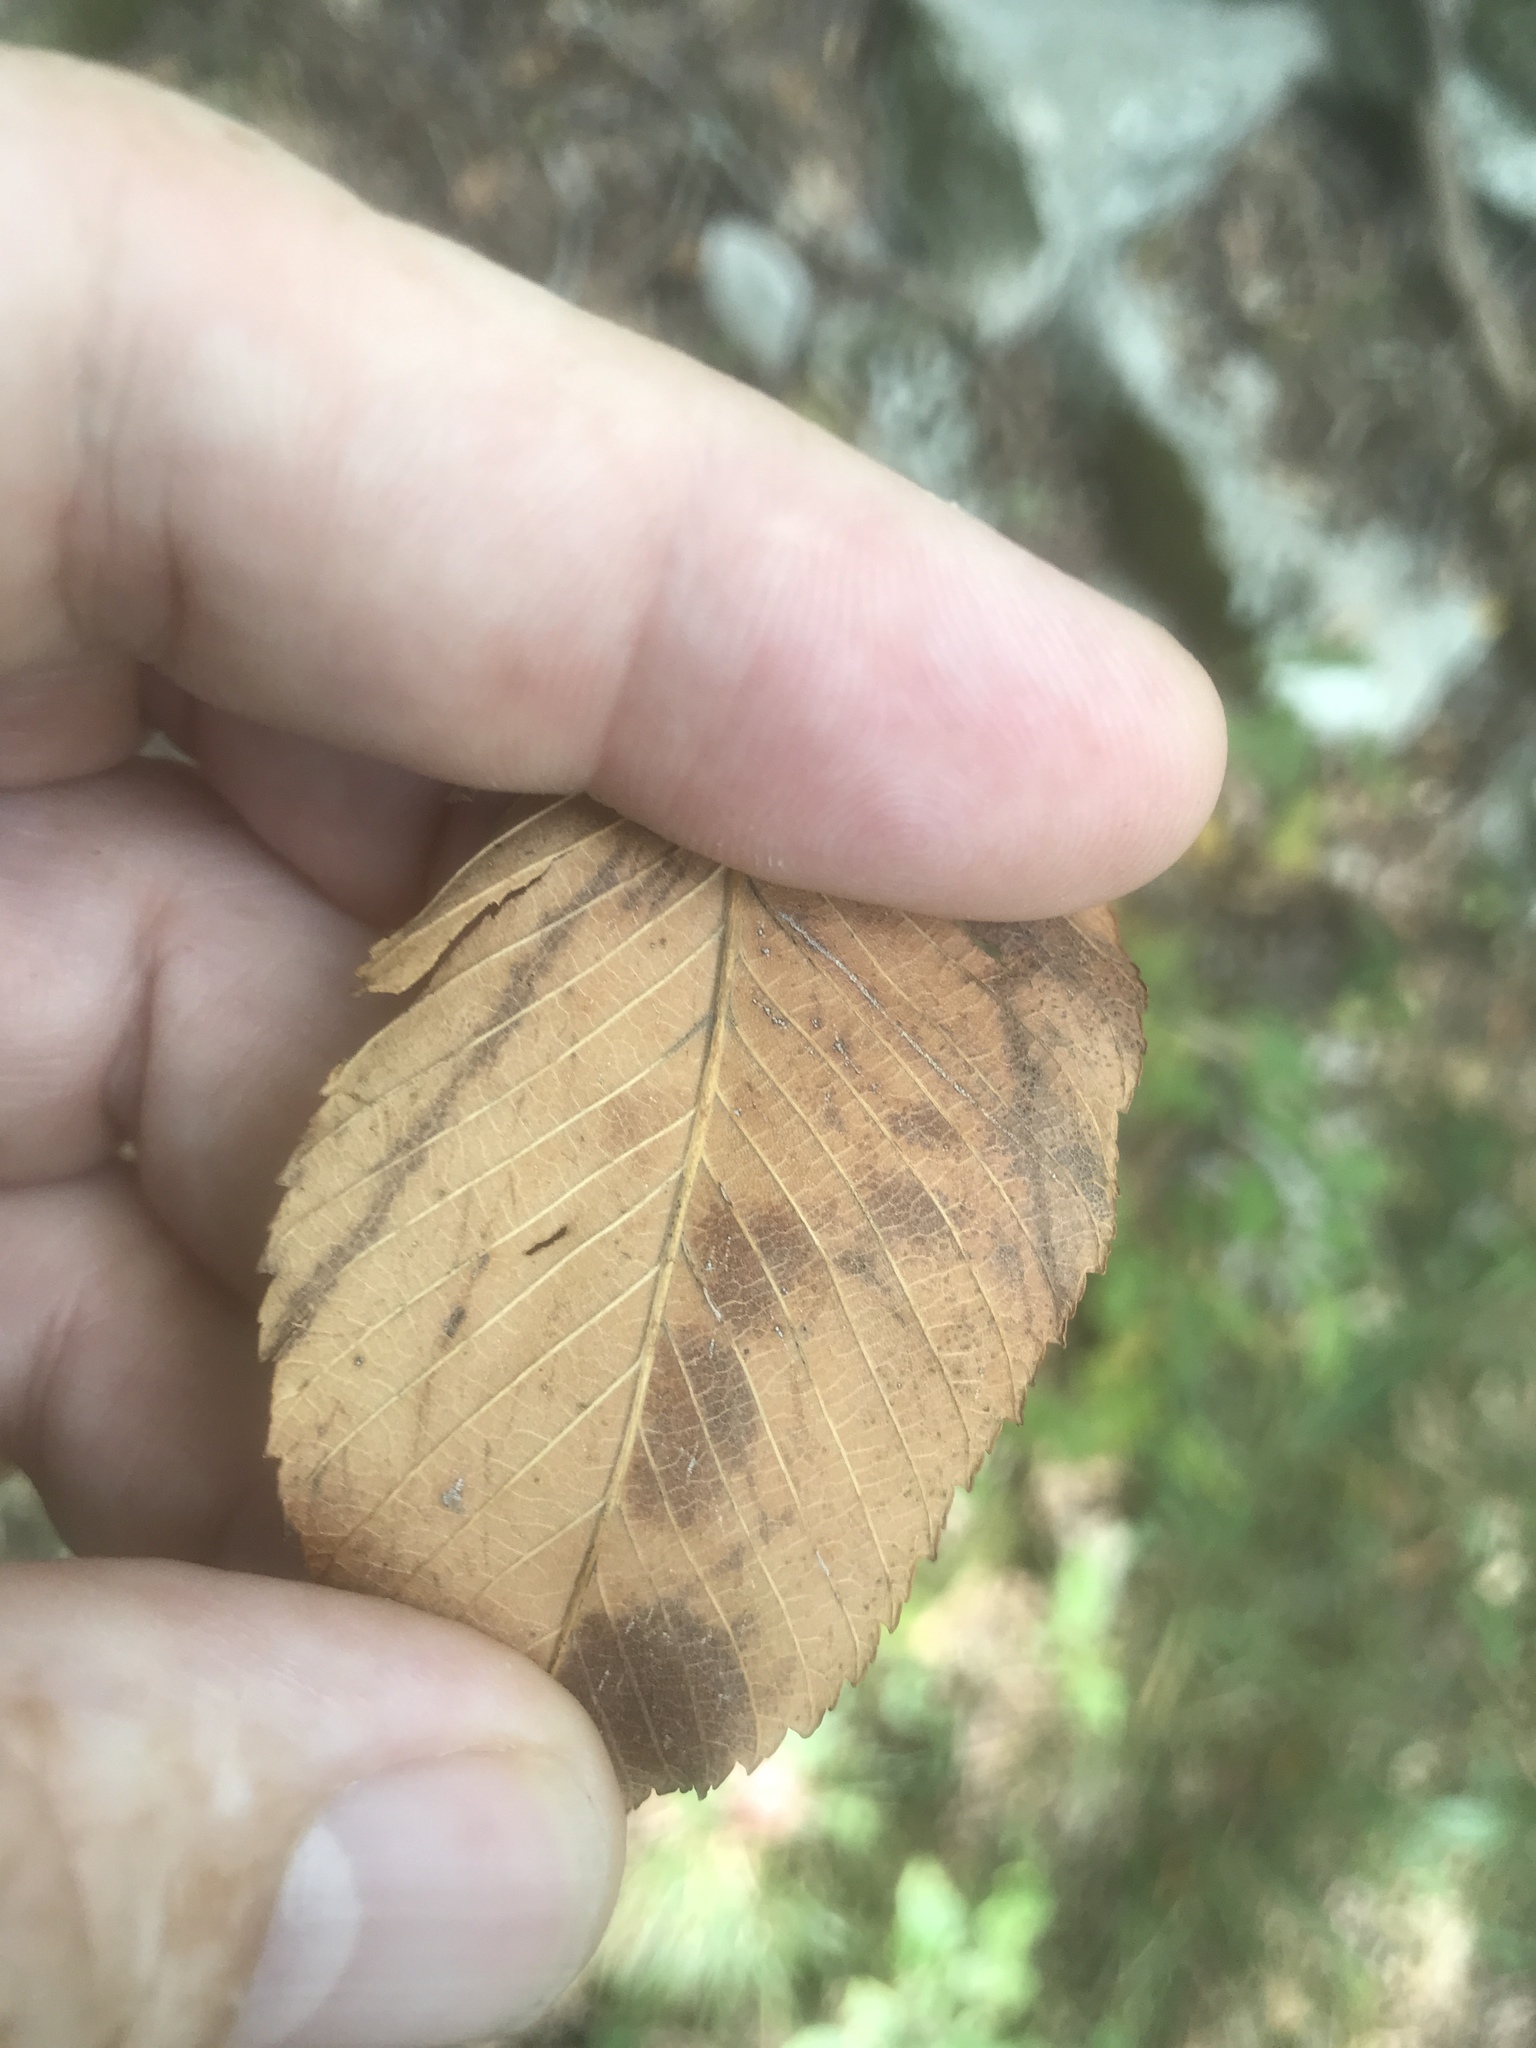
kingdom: Plantae
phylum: Tracheophyta
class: Magnoliopsida
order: Rosales
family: Ulmaceae
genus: Ulmus
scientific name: Ulmus serotina
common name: September elm
